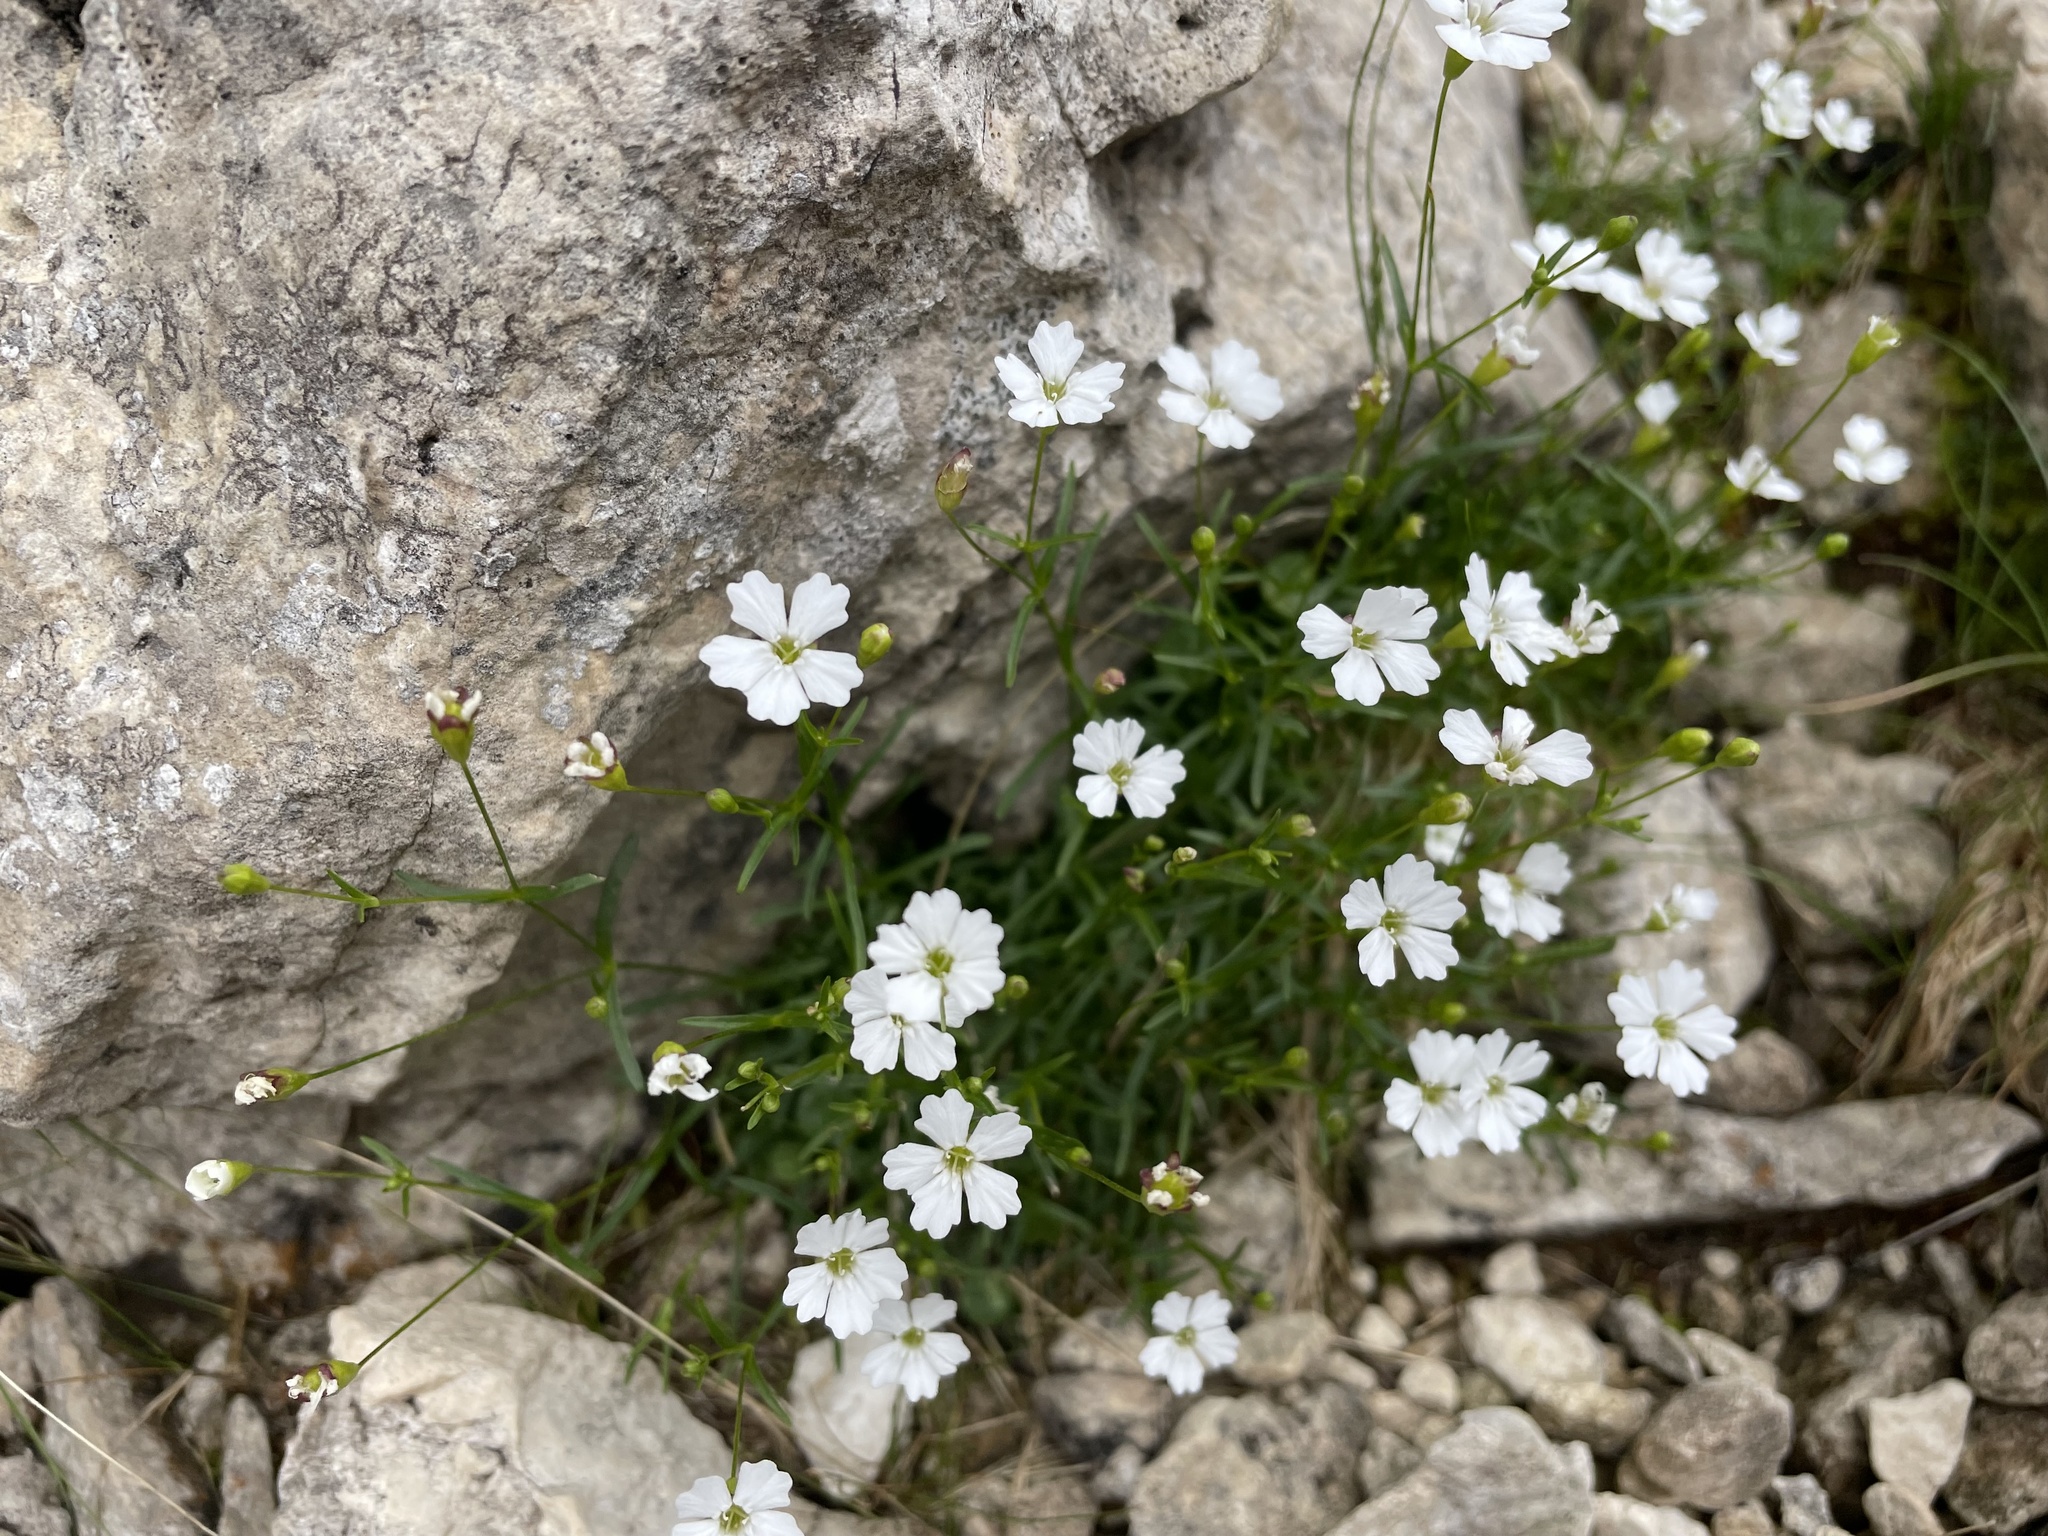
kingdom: Plantae
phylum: Tracheophyta
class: Magnoliopsida
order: Caryophyllales
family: Caryophyllaceae
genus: Heliosperma
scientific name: Heliosperma pusillum
